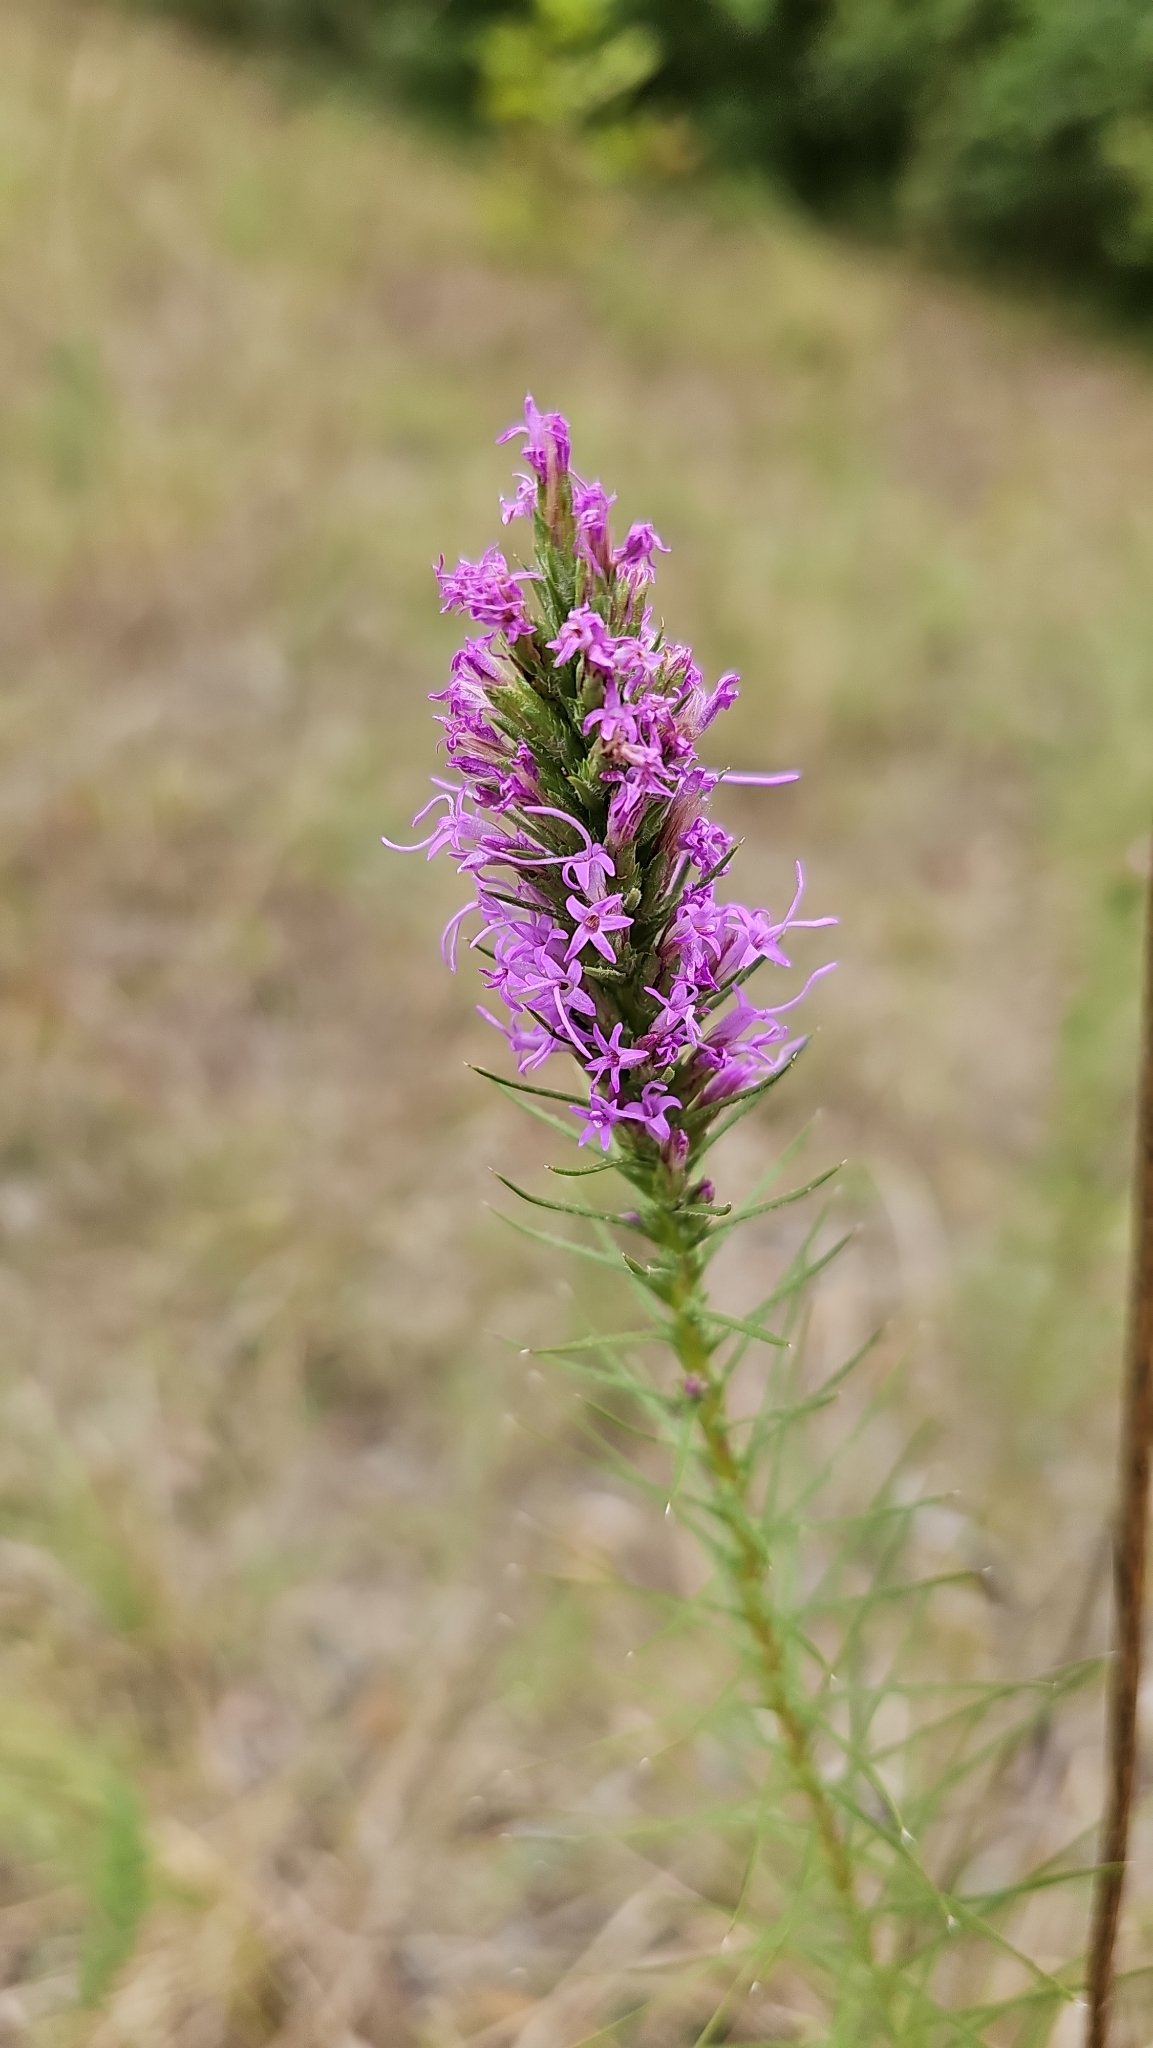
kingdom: Plantae
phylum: Tracheophyta
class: Magnoliopsida
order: Asterales
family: Asteraceae
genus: Liatris
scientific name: Liatris punctata
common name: Dotted gayfeather
